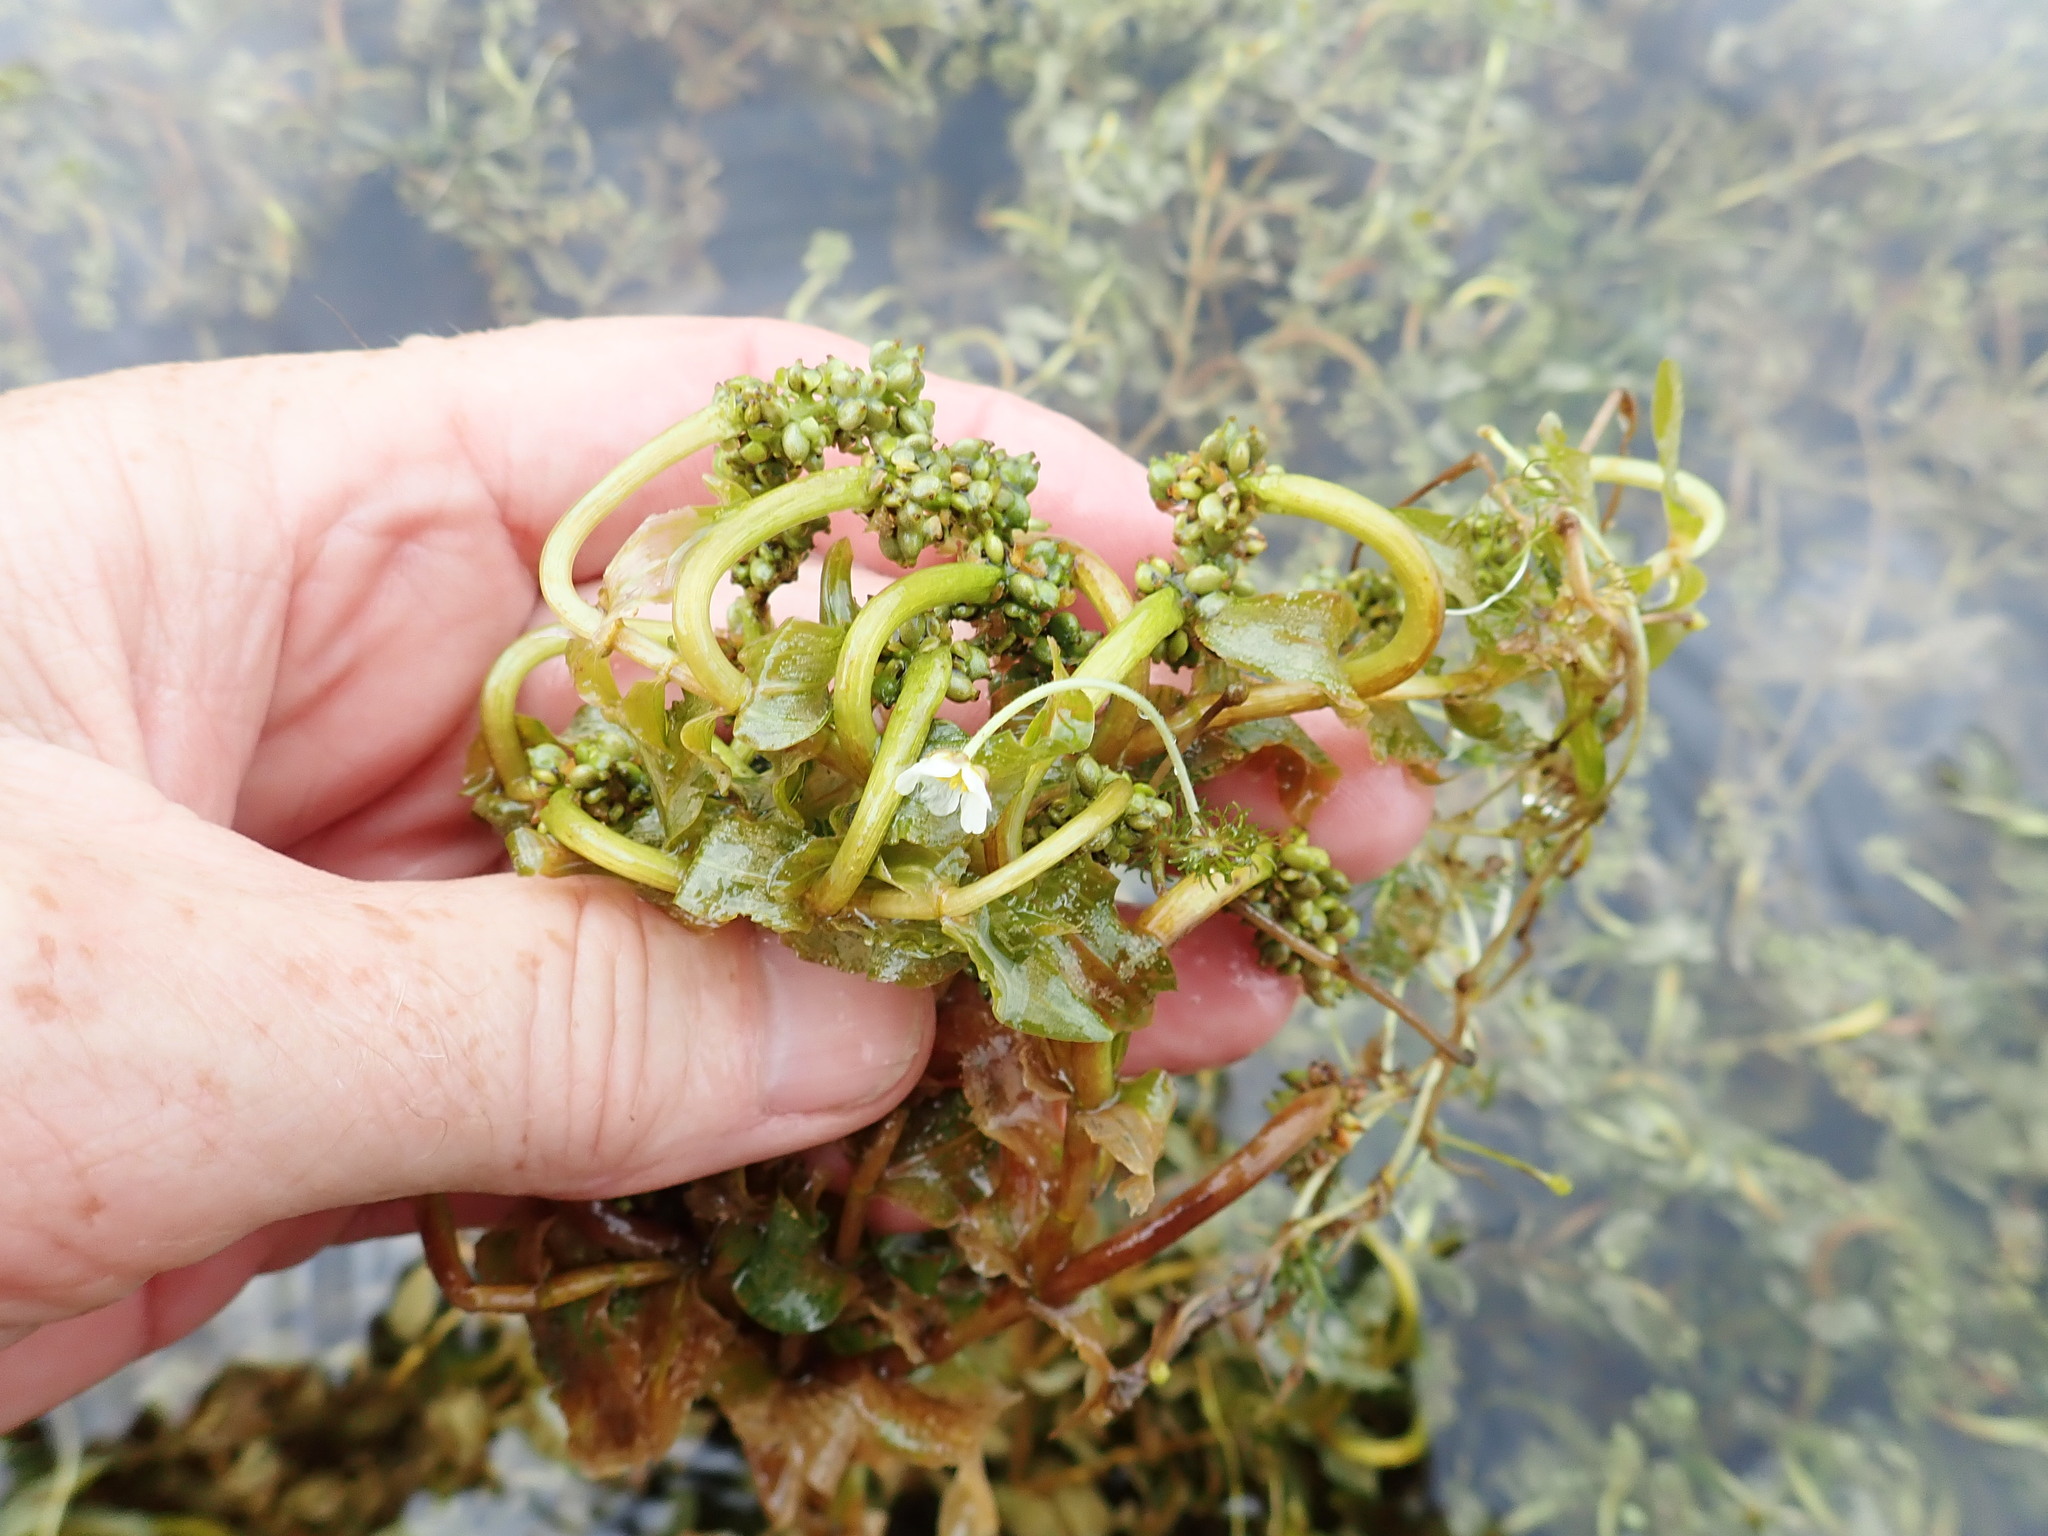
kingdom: Plantae
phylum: Tracheophyta
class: Liliopsida
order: Alismatales
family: Potamogetonaceae
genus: Potamogeton
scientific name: Potamogeton richardsonii
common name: Richardson's pondweed
